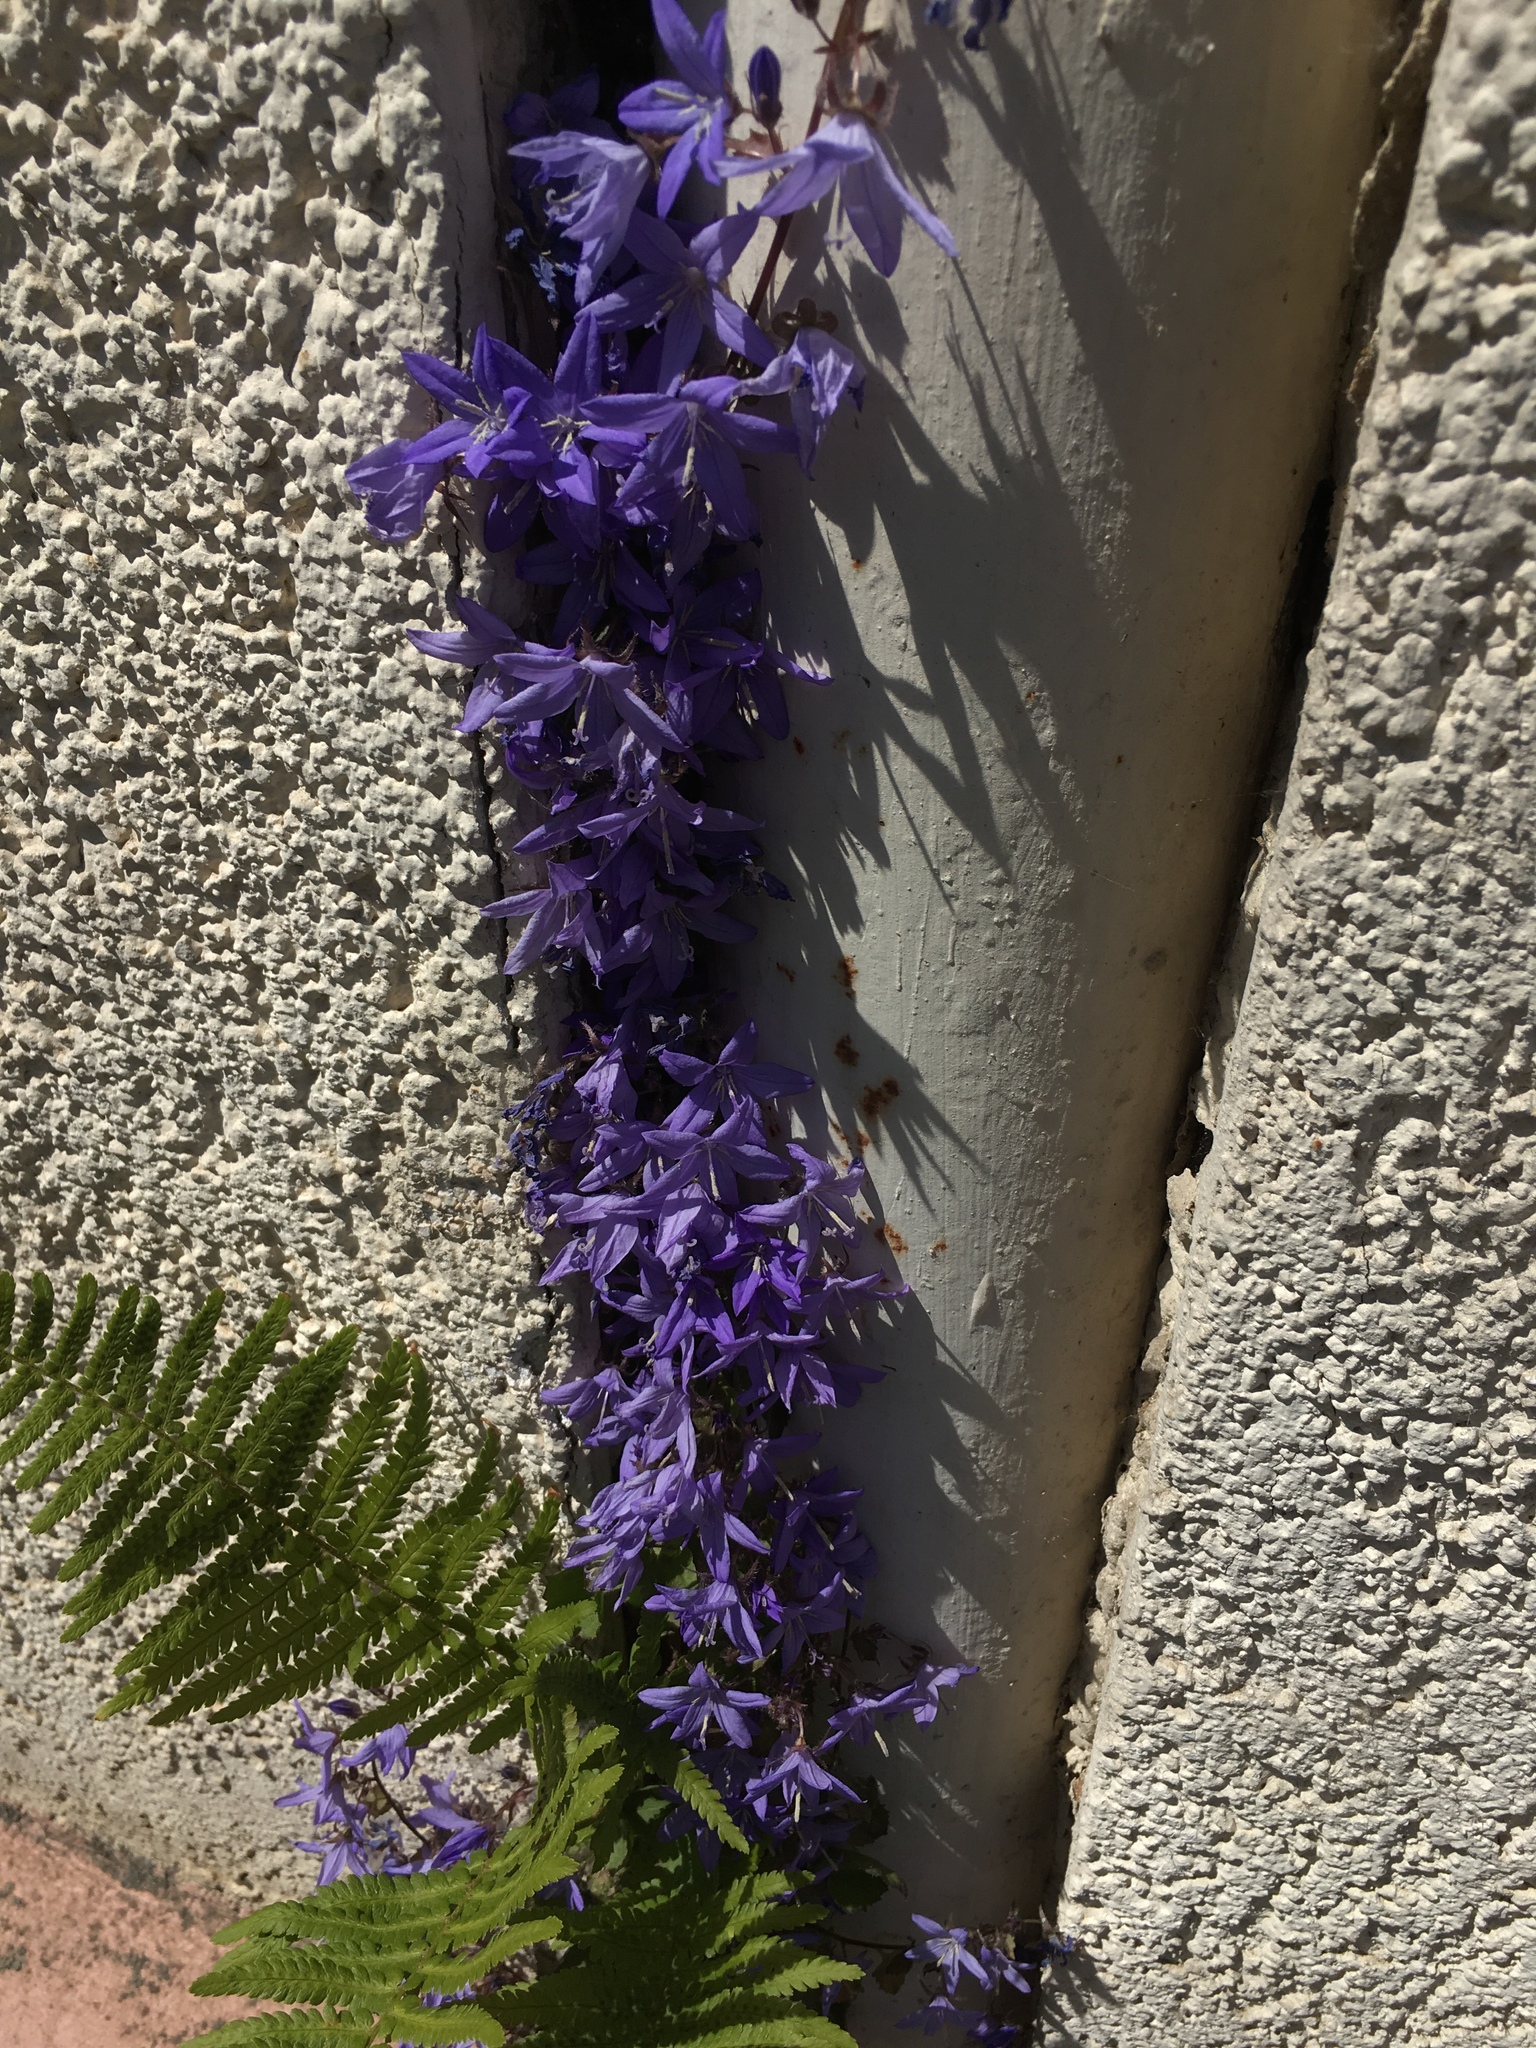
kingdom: Plantae
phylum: Tracheophyta
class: Magnoliopsida
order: Asterales
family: Campanulaceae
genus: Campanula
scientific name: Campanula poscharskyana
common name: Trailing bellflower
